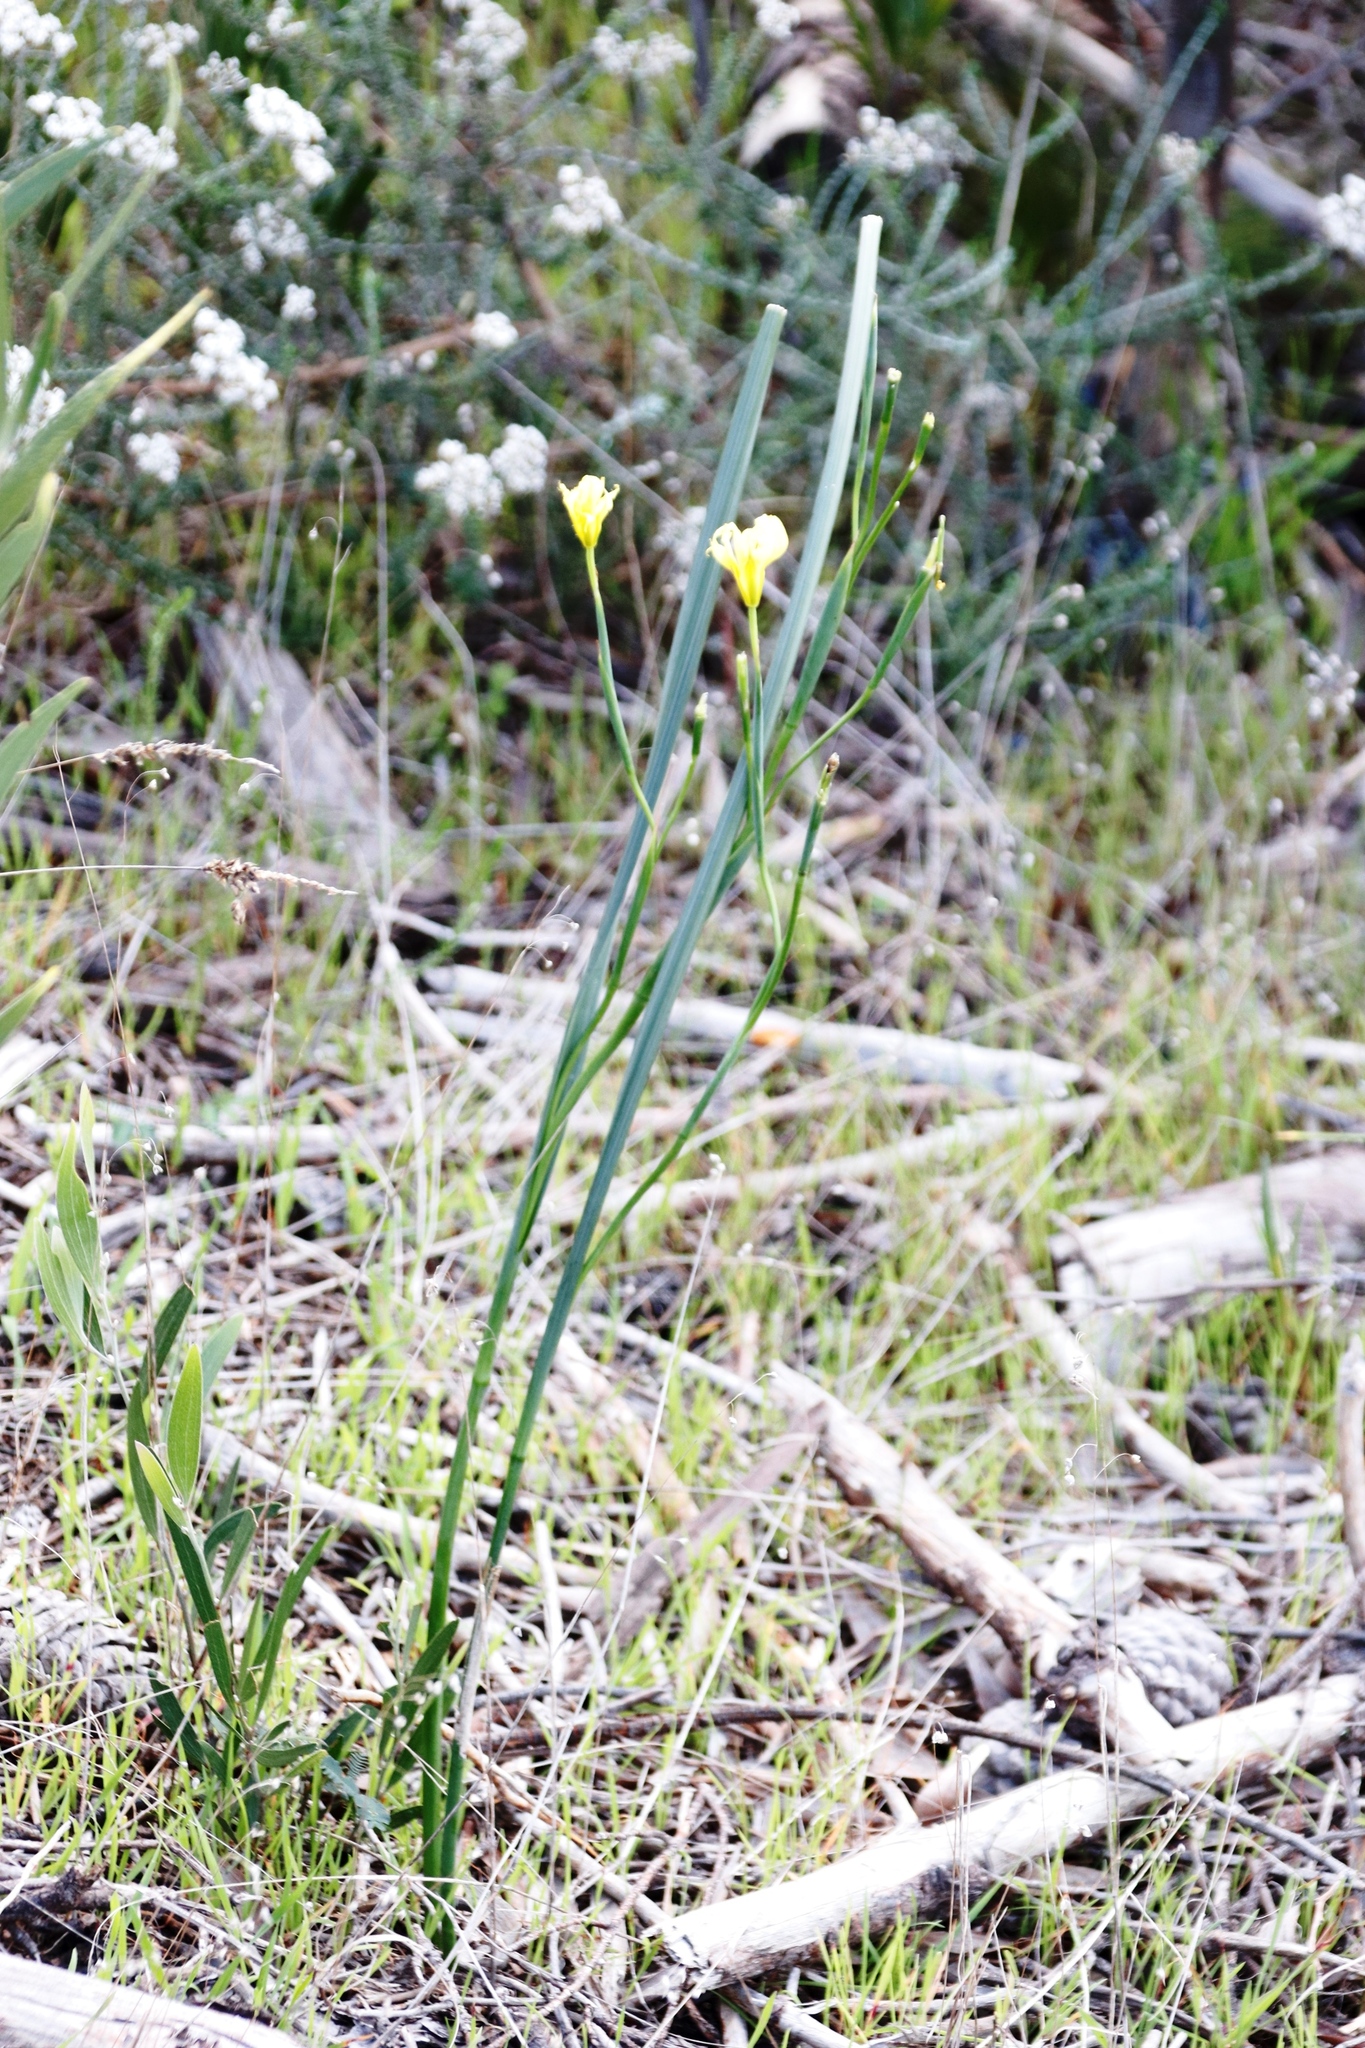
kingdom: Plantae
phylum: Tracheophyta
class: Liliopsida
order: Asparagales
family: Iridaceae
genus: Moraea
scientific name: Moraea collina
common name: Cape-tulip
